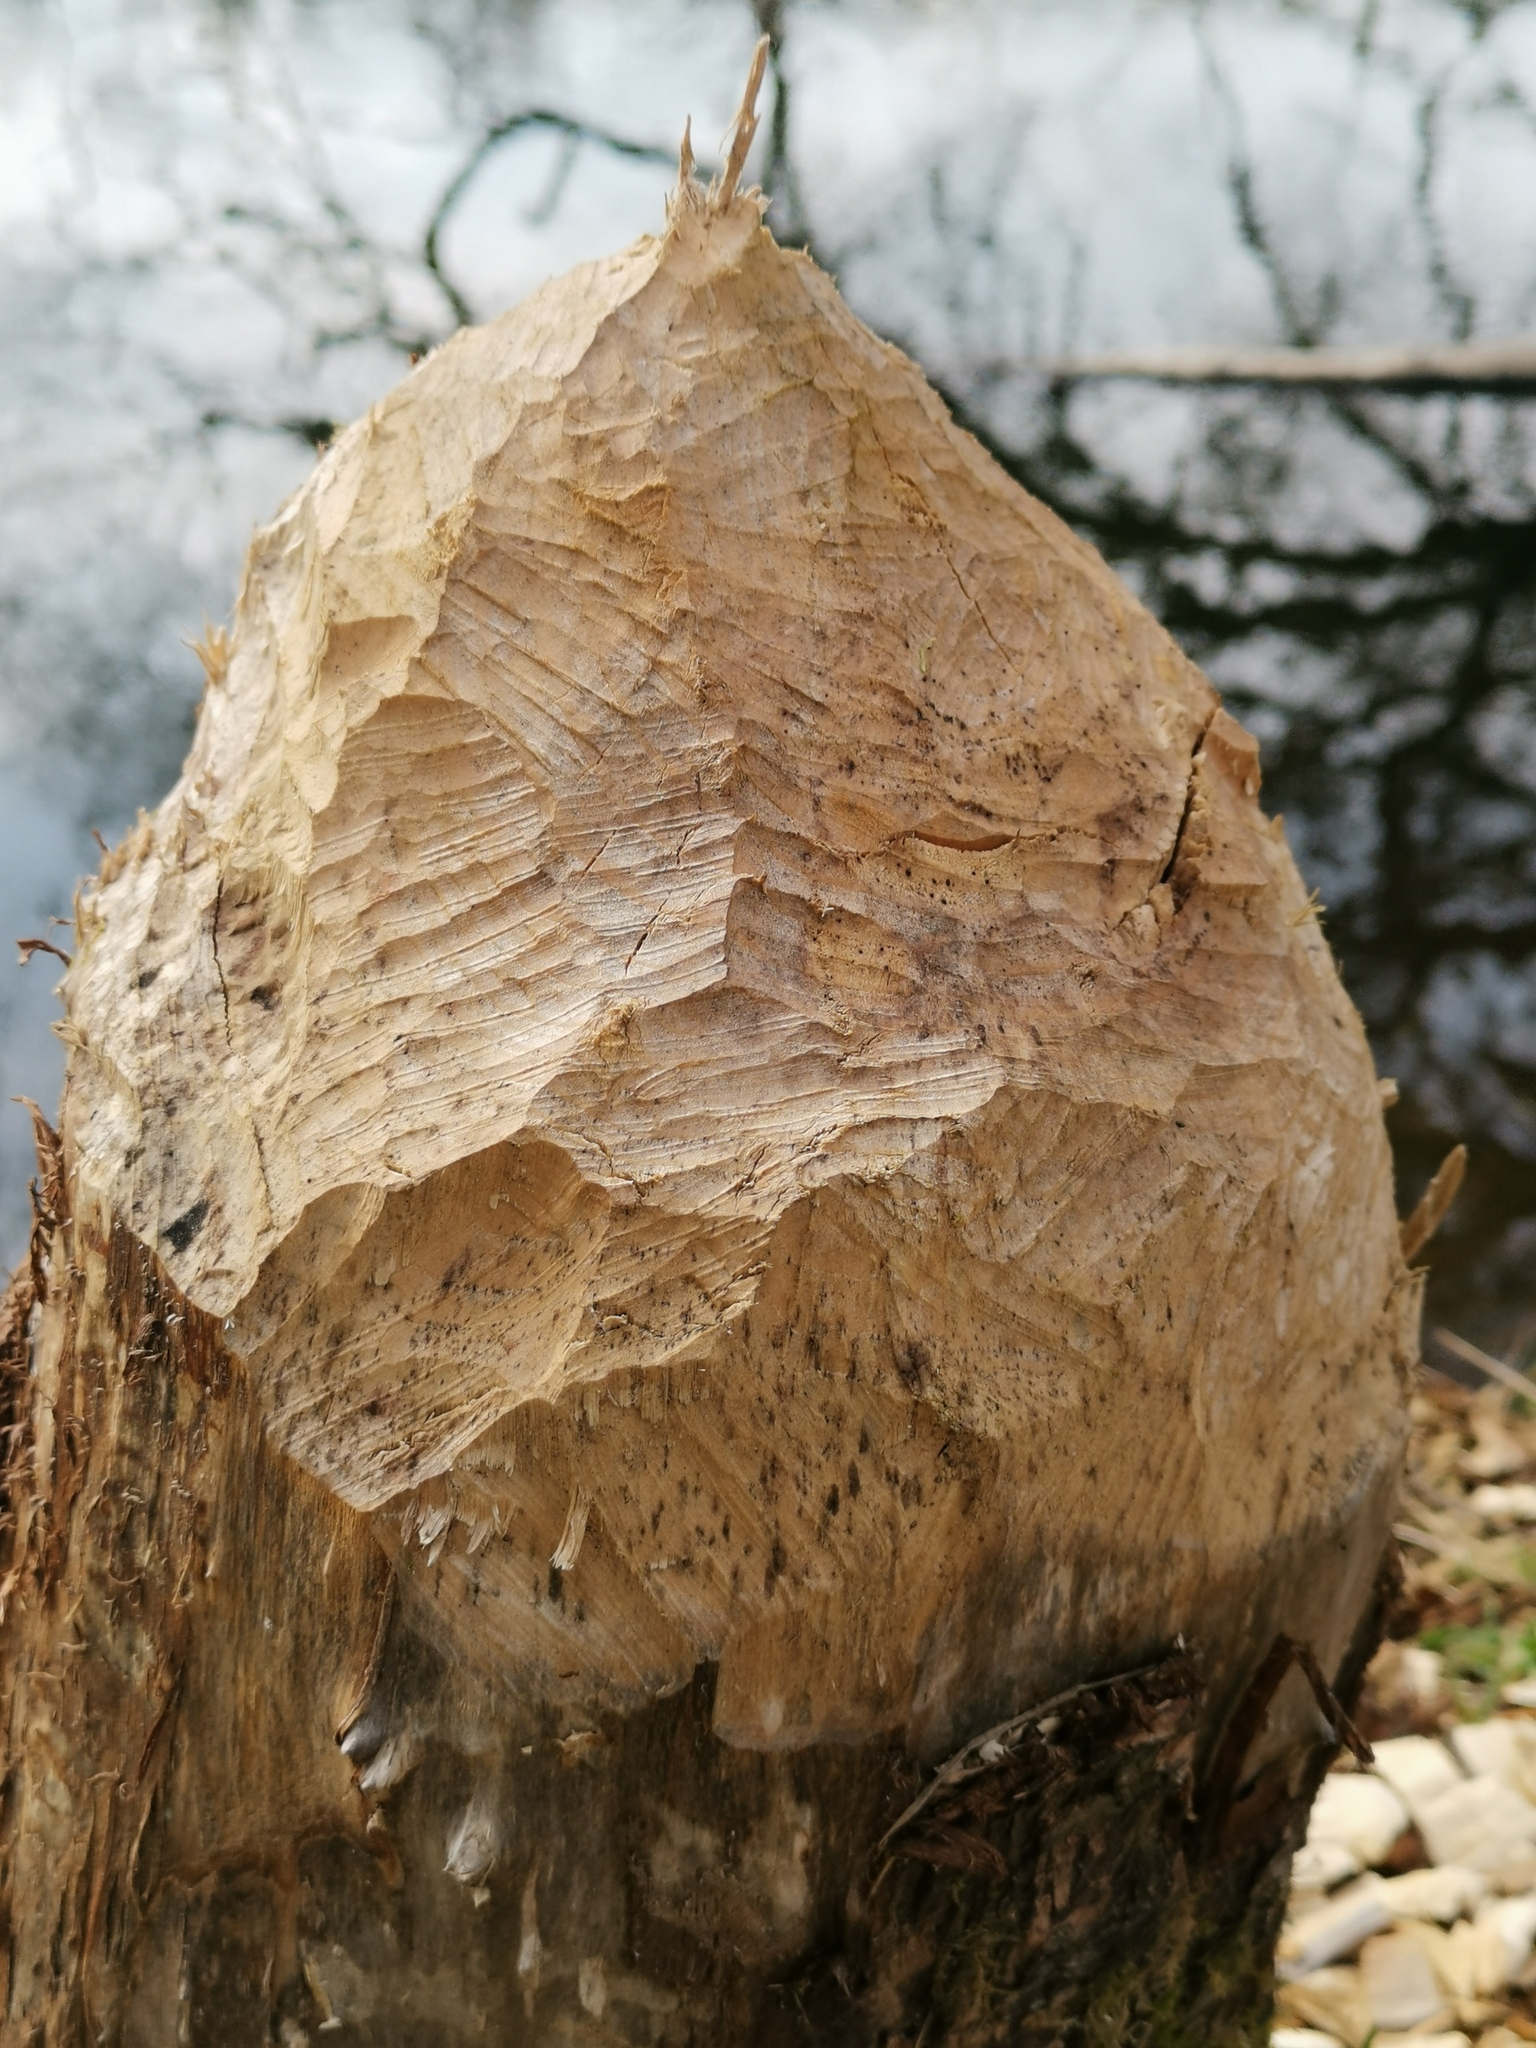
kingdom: Animalia
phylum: Chordata
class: Mammalia
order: Rodentia
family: Castoridae
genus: Castor
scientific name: Castor fiber
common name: Eurasian beaver
